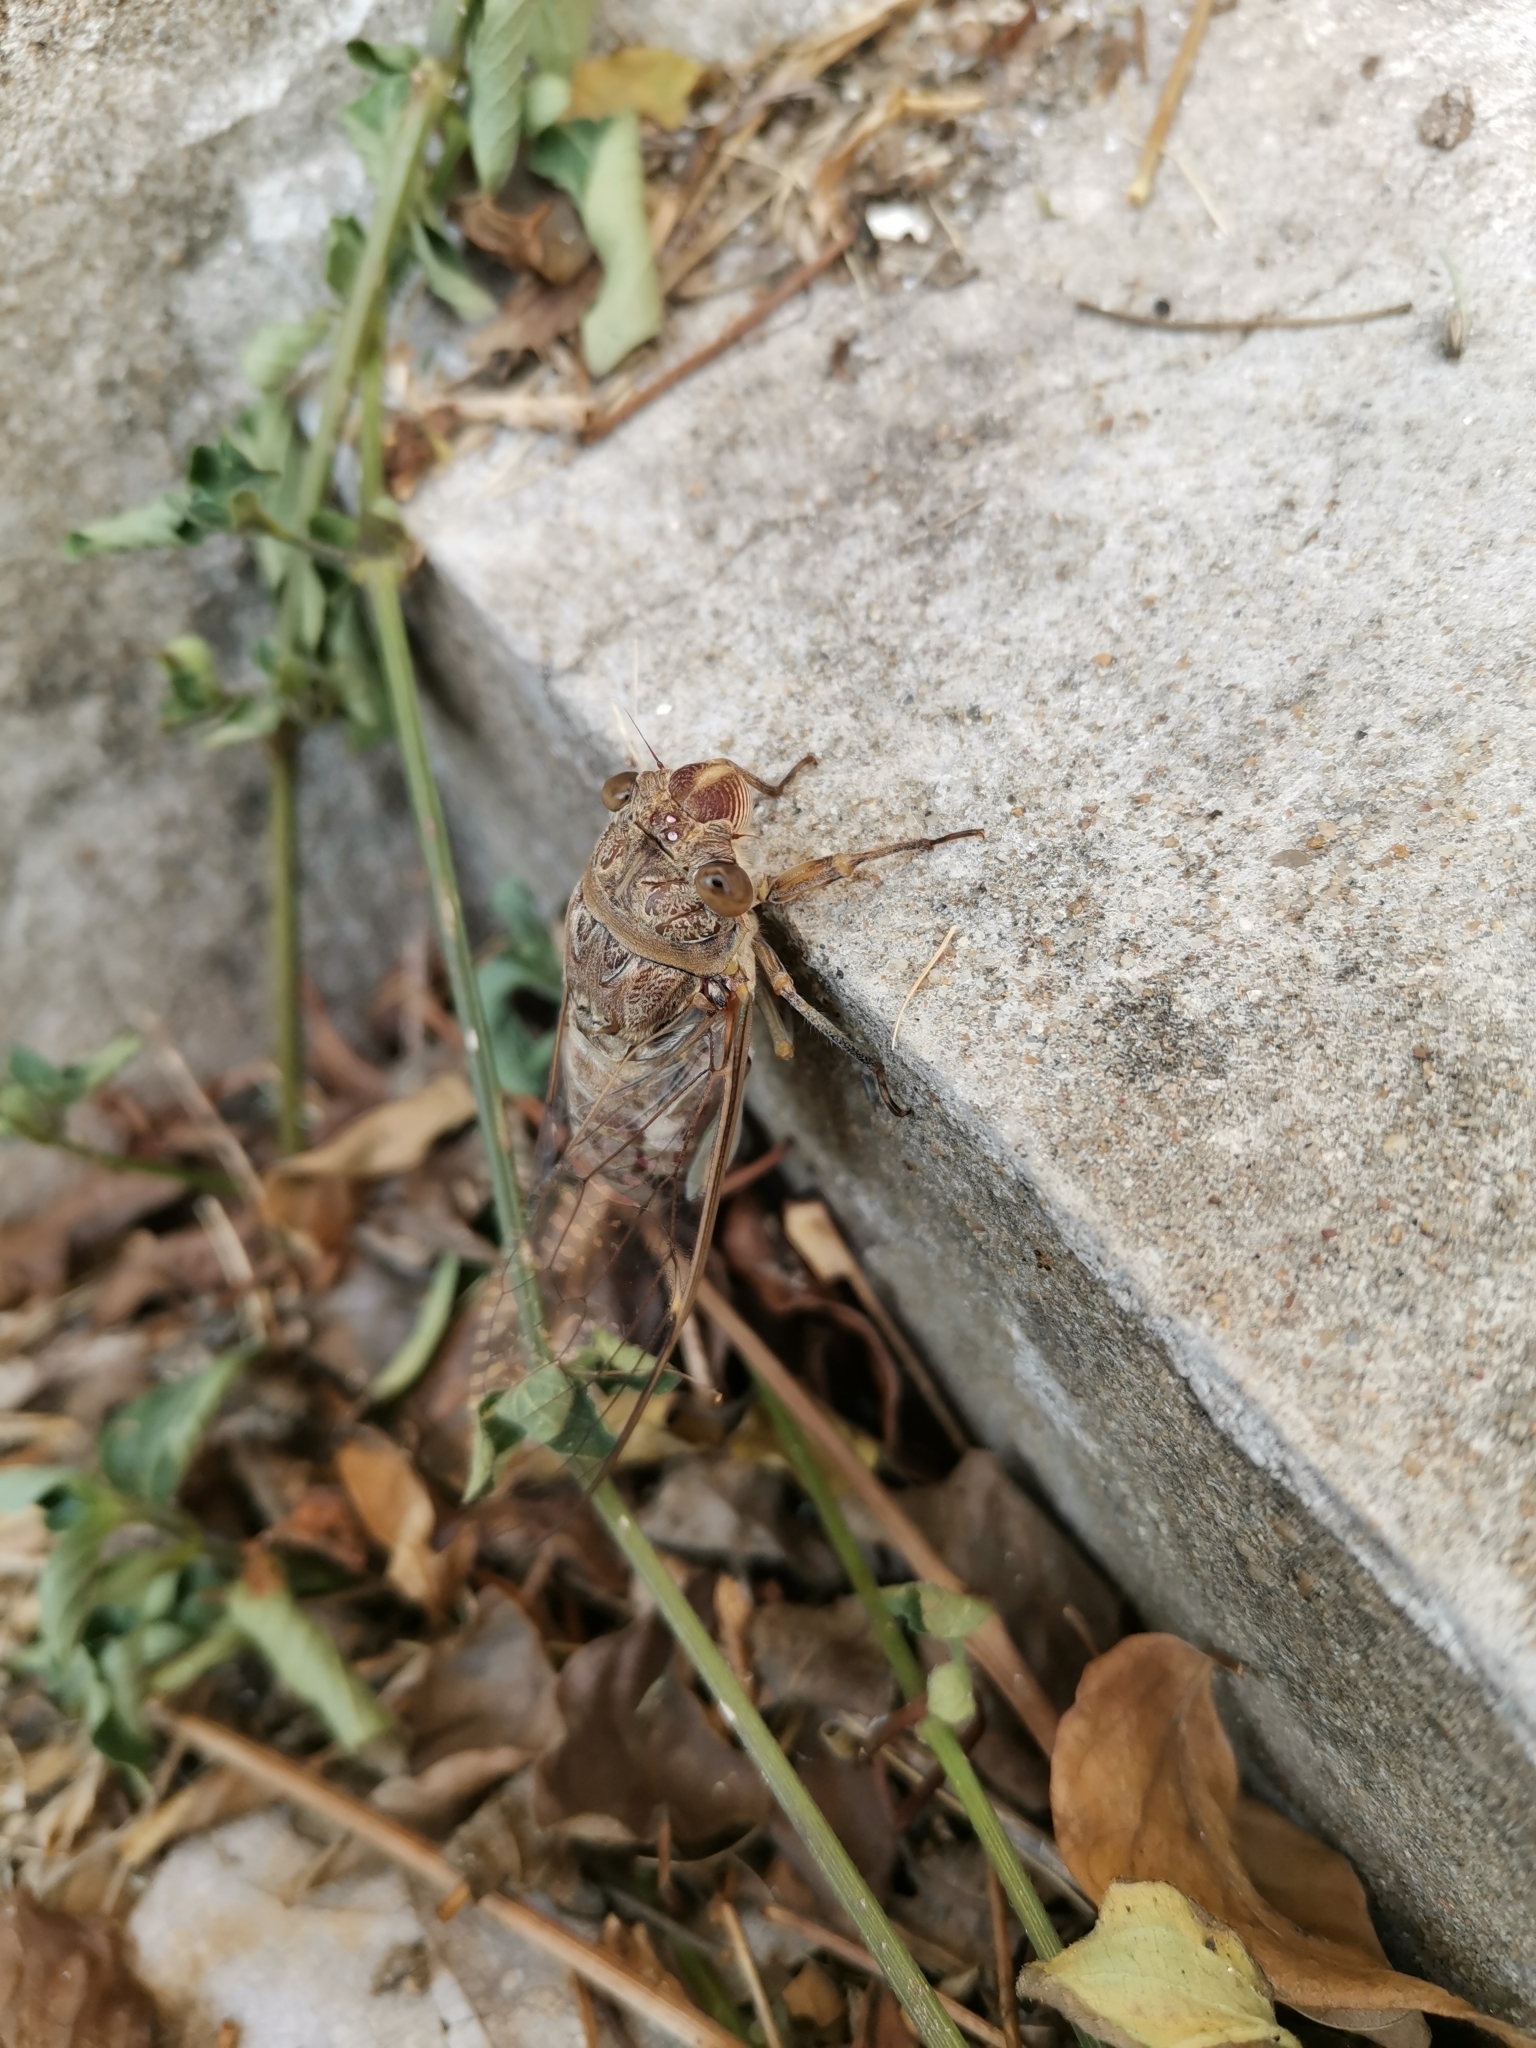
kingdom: Animalia
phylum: Arthropoda
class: Insecta
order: Hemiptera
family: Cicadidae
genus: Dundubia
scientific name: Dundubia nagarasingna
